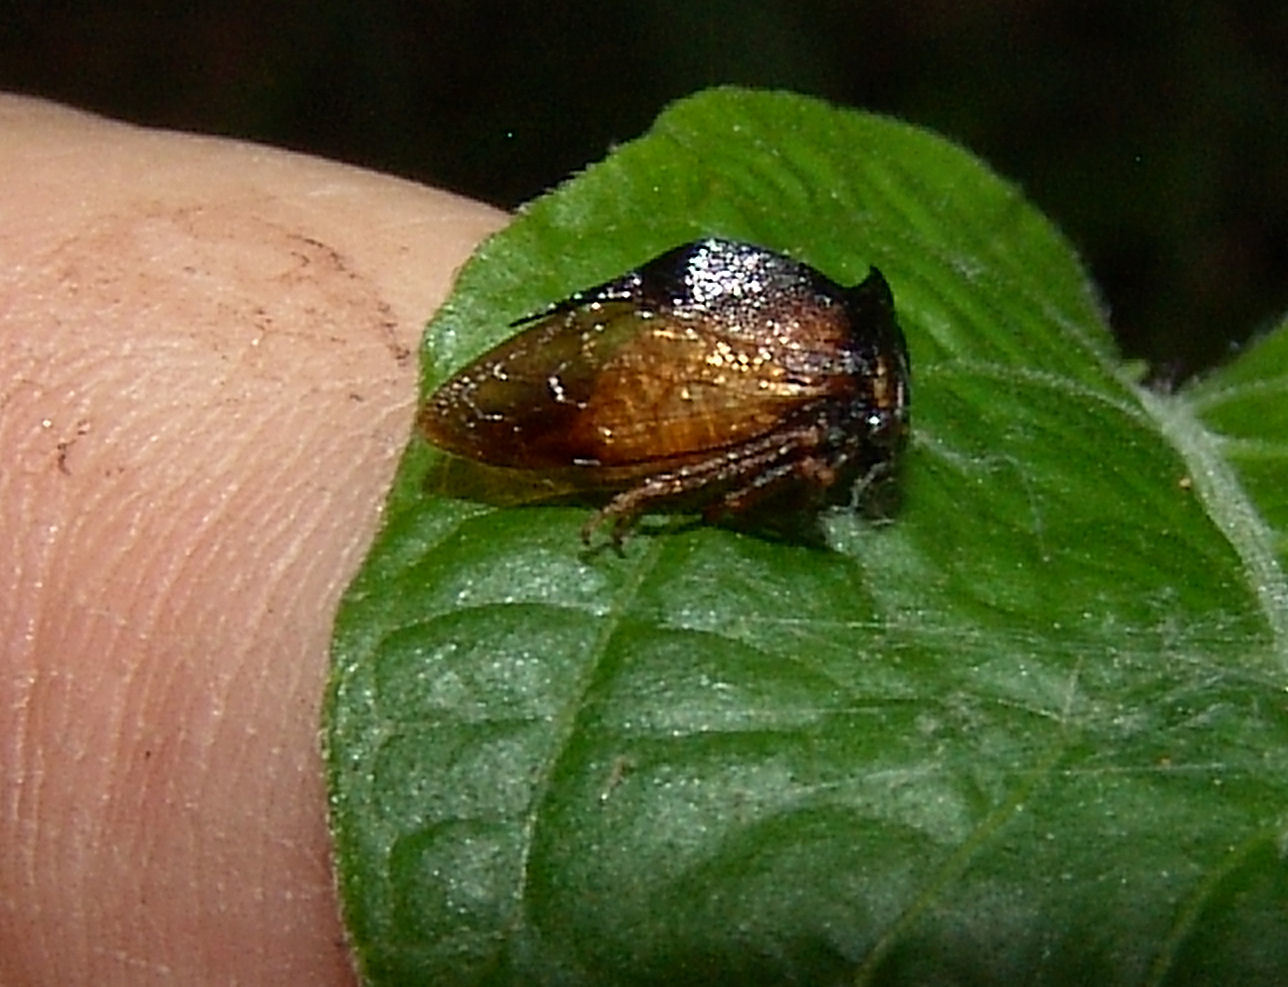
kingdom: Animalia
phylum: Arthropoda
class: Insecta
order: Hemiptera
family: Membracidae
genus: Stictocephala
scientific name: Stictocephala stimulea
